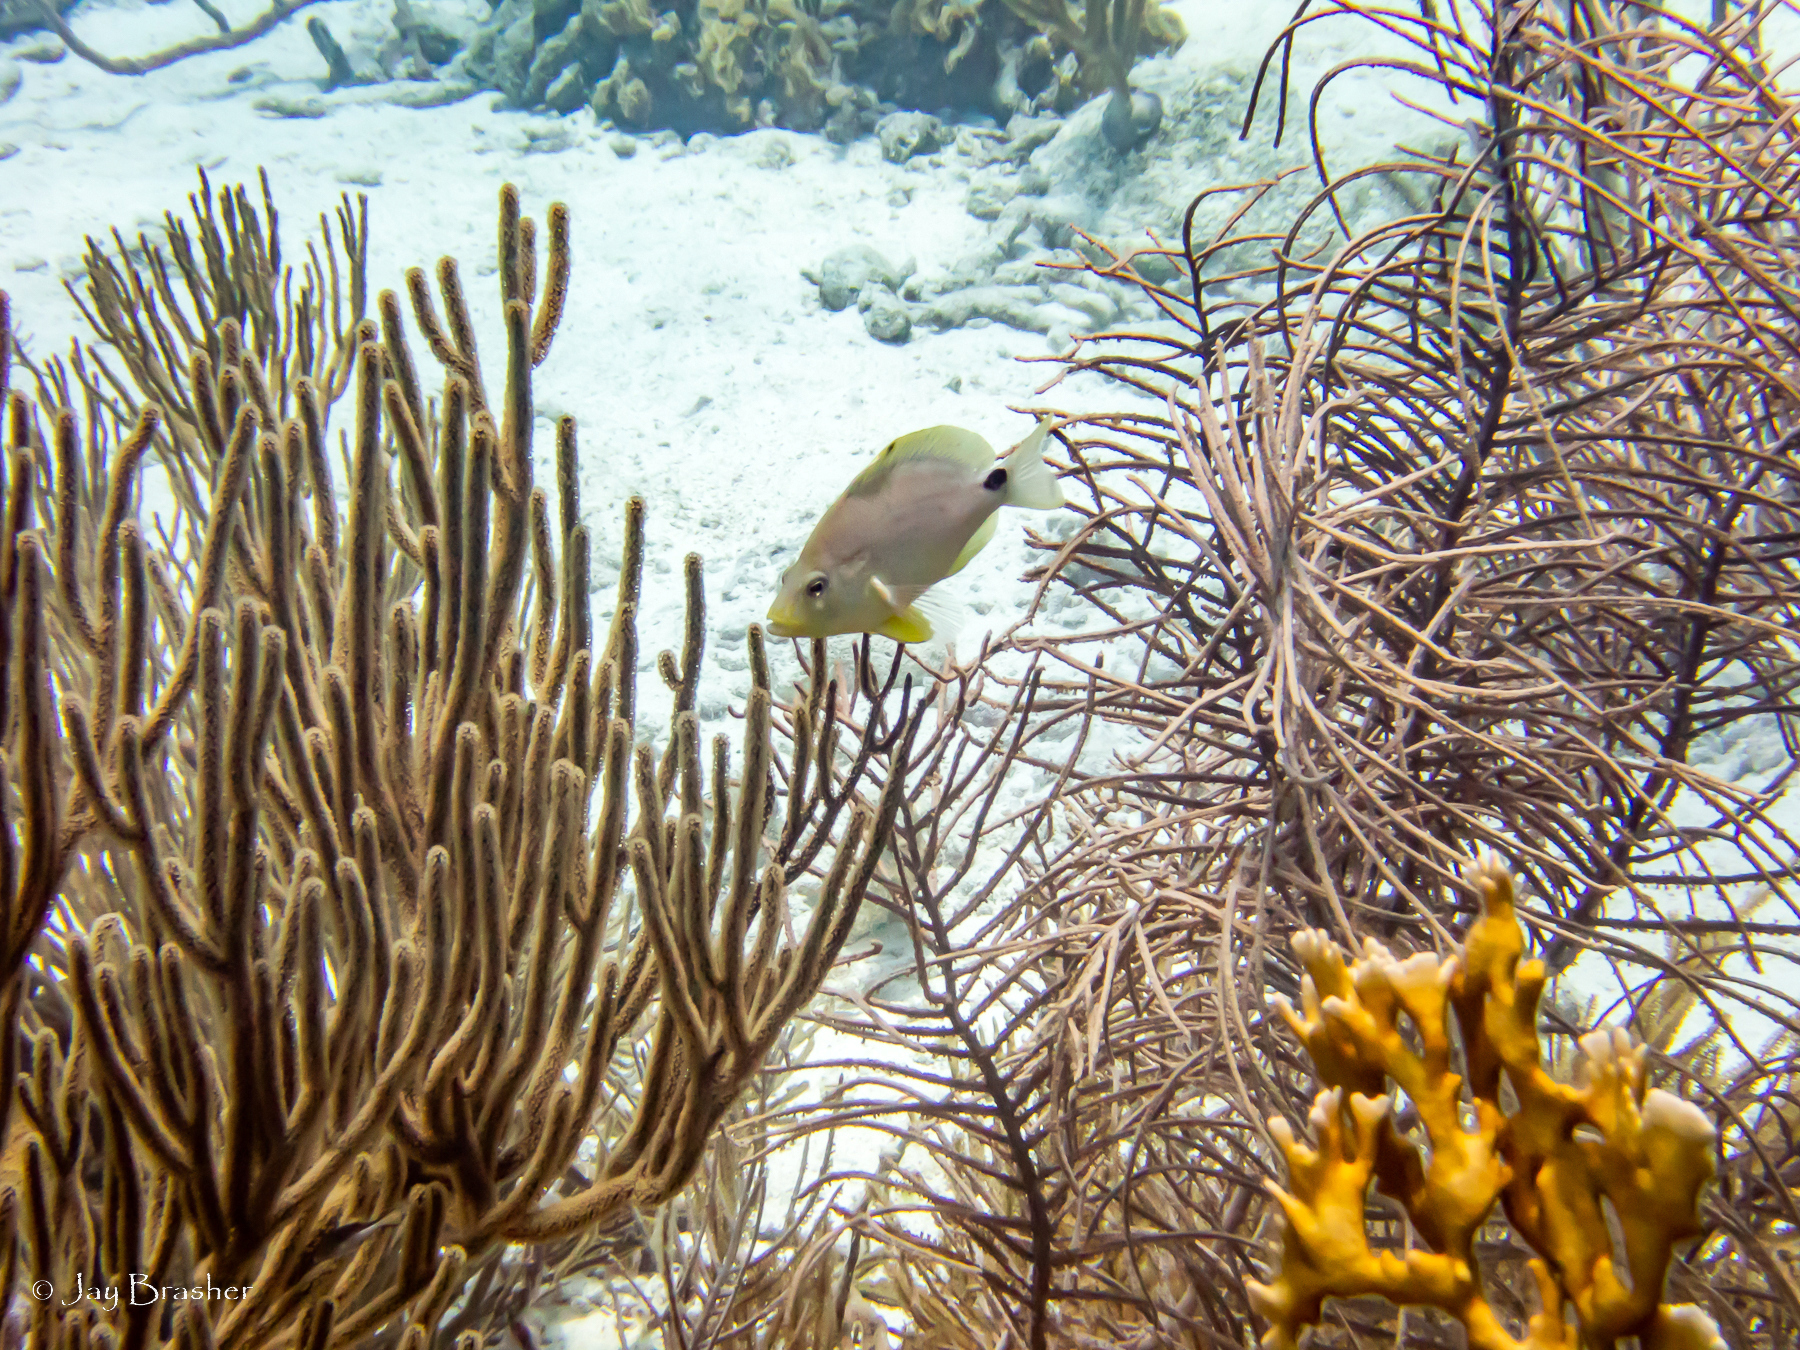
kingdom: Animalia
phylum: Chordata
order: Perciformes
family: Serranidae
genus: Hypoplectrus
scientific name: Hypoplectrus unicolor
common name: Butter hamlet
